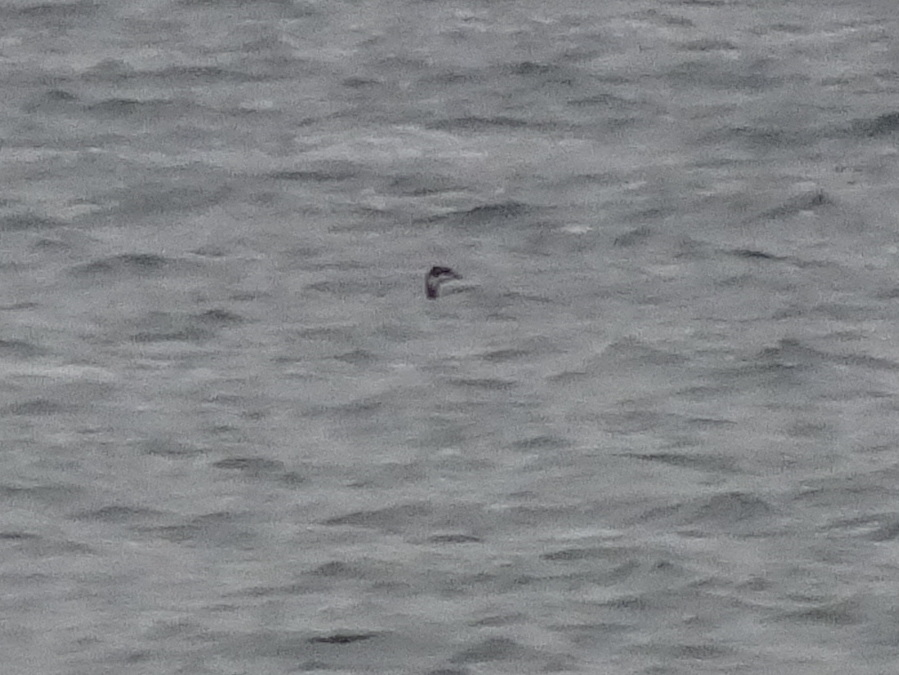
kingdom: Animalia
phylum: Chordata
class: Aves
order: Podicipediformes
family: Podicipedidae
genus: Podiceps
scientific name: Podiceps auritus
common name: Horned grebe
